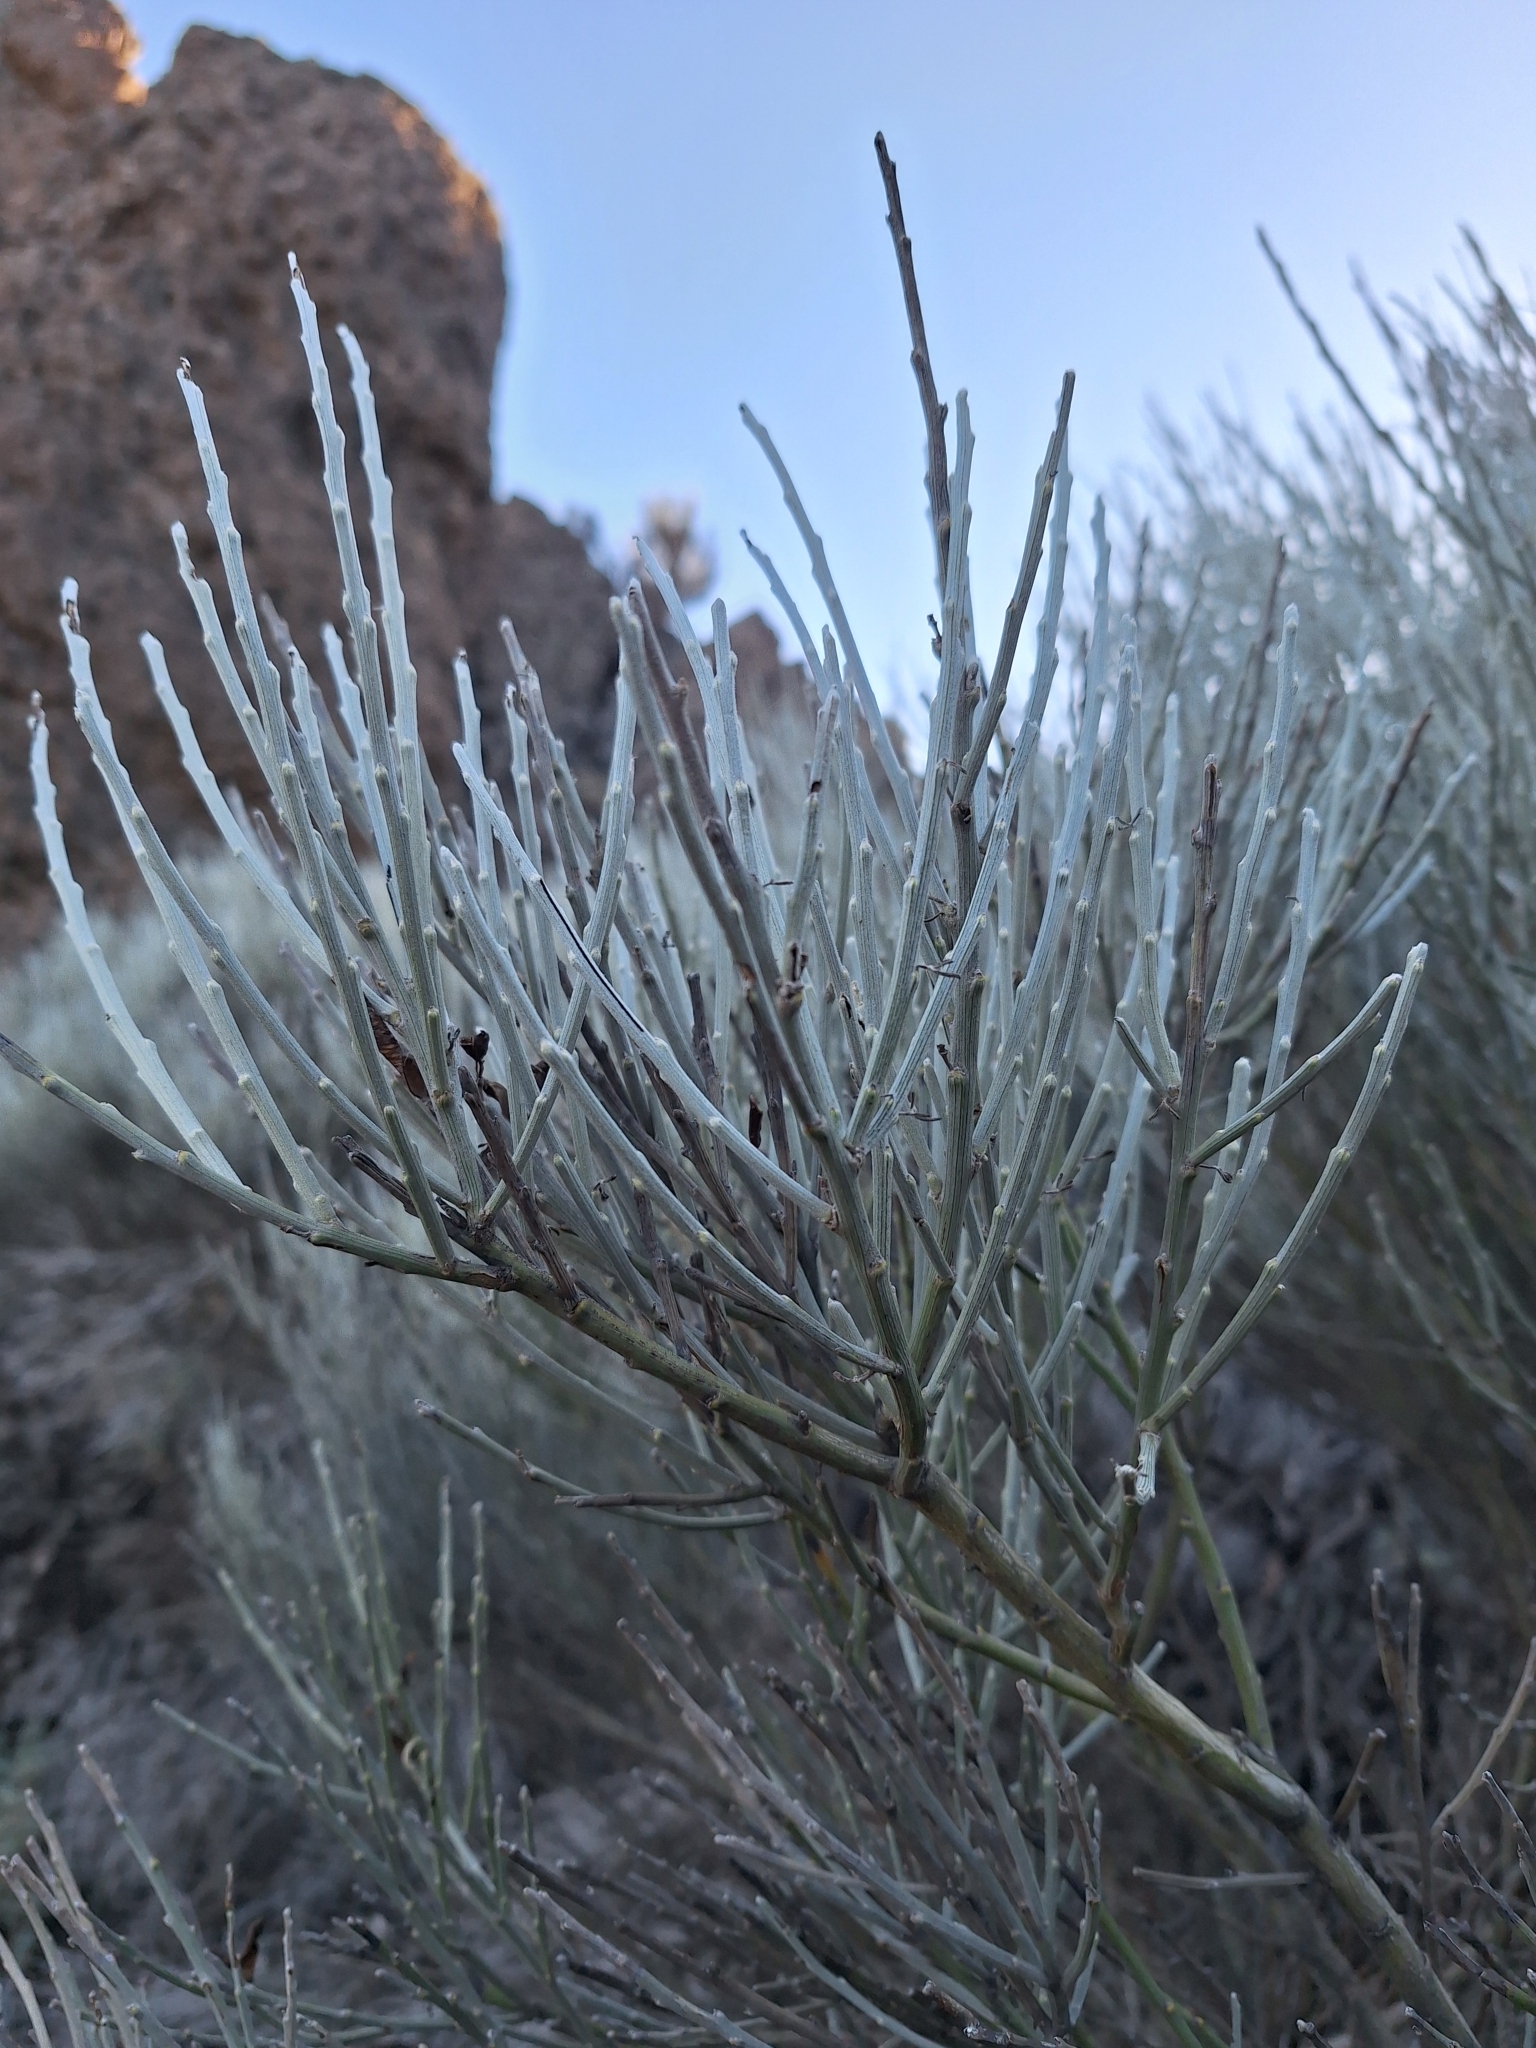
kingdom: Plantae
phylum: Tracheophyta
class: Magnoliopsida
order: Fabales
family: Fabaceae
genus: Cytisus
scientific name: Cytisus supranubius
